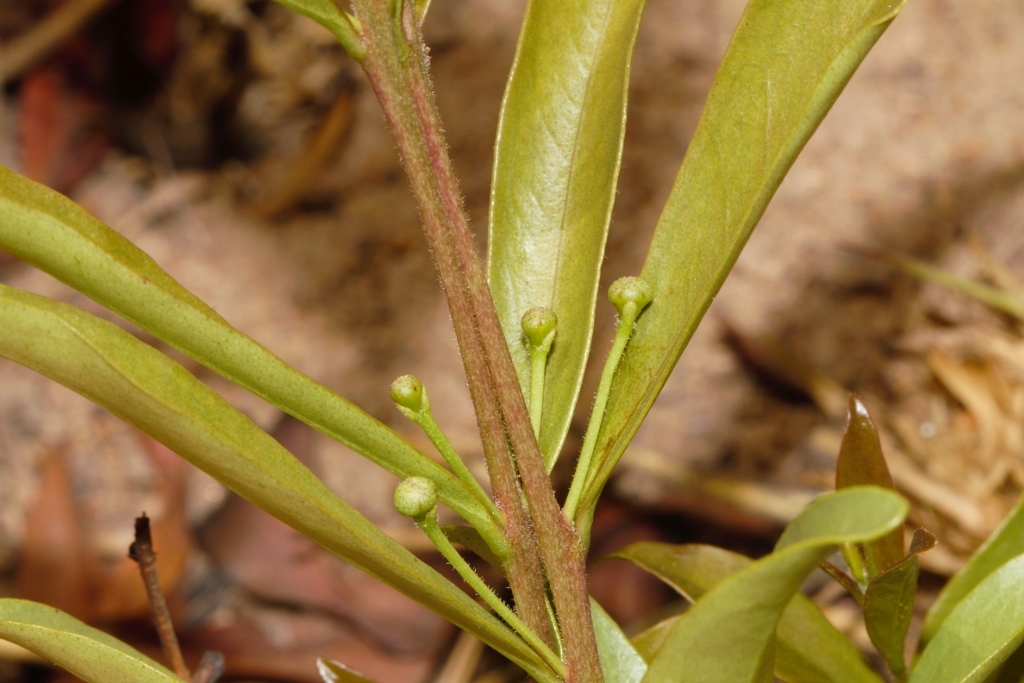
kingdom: Plantae
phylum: Tracheophyta
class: Magnoliopsida
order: Myrtales
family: Myrtaceae
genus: Eugenia
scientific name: Eugenia malangensis
